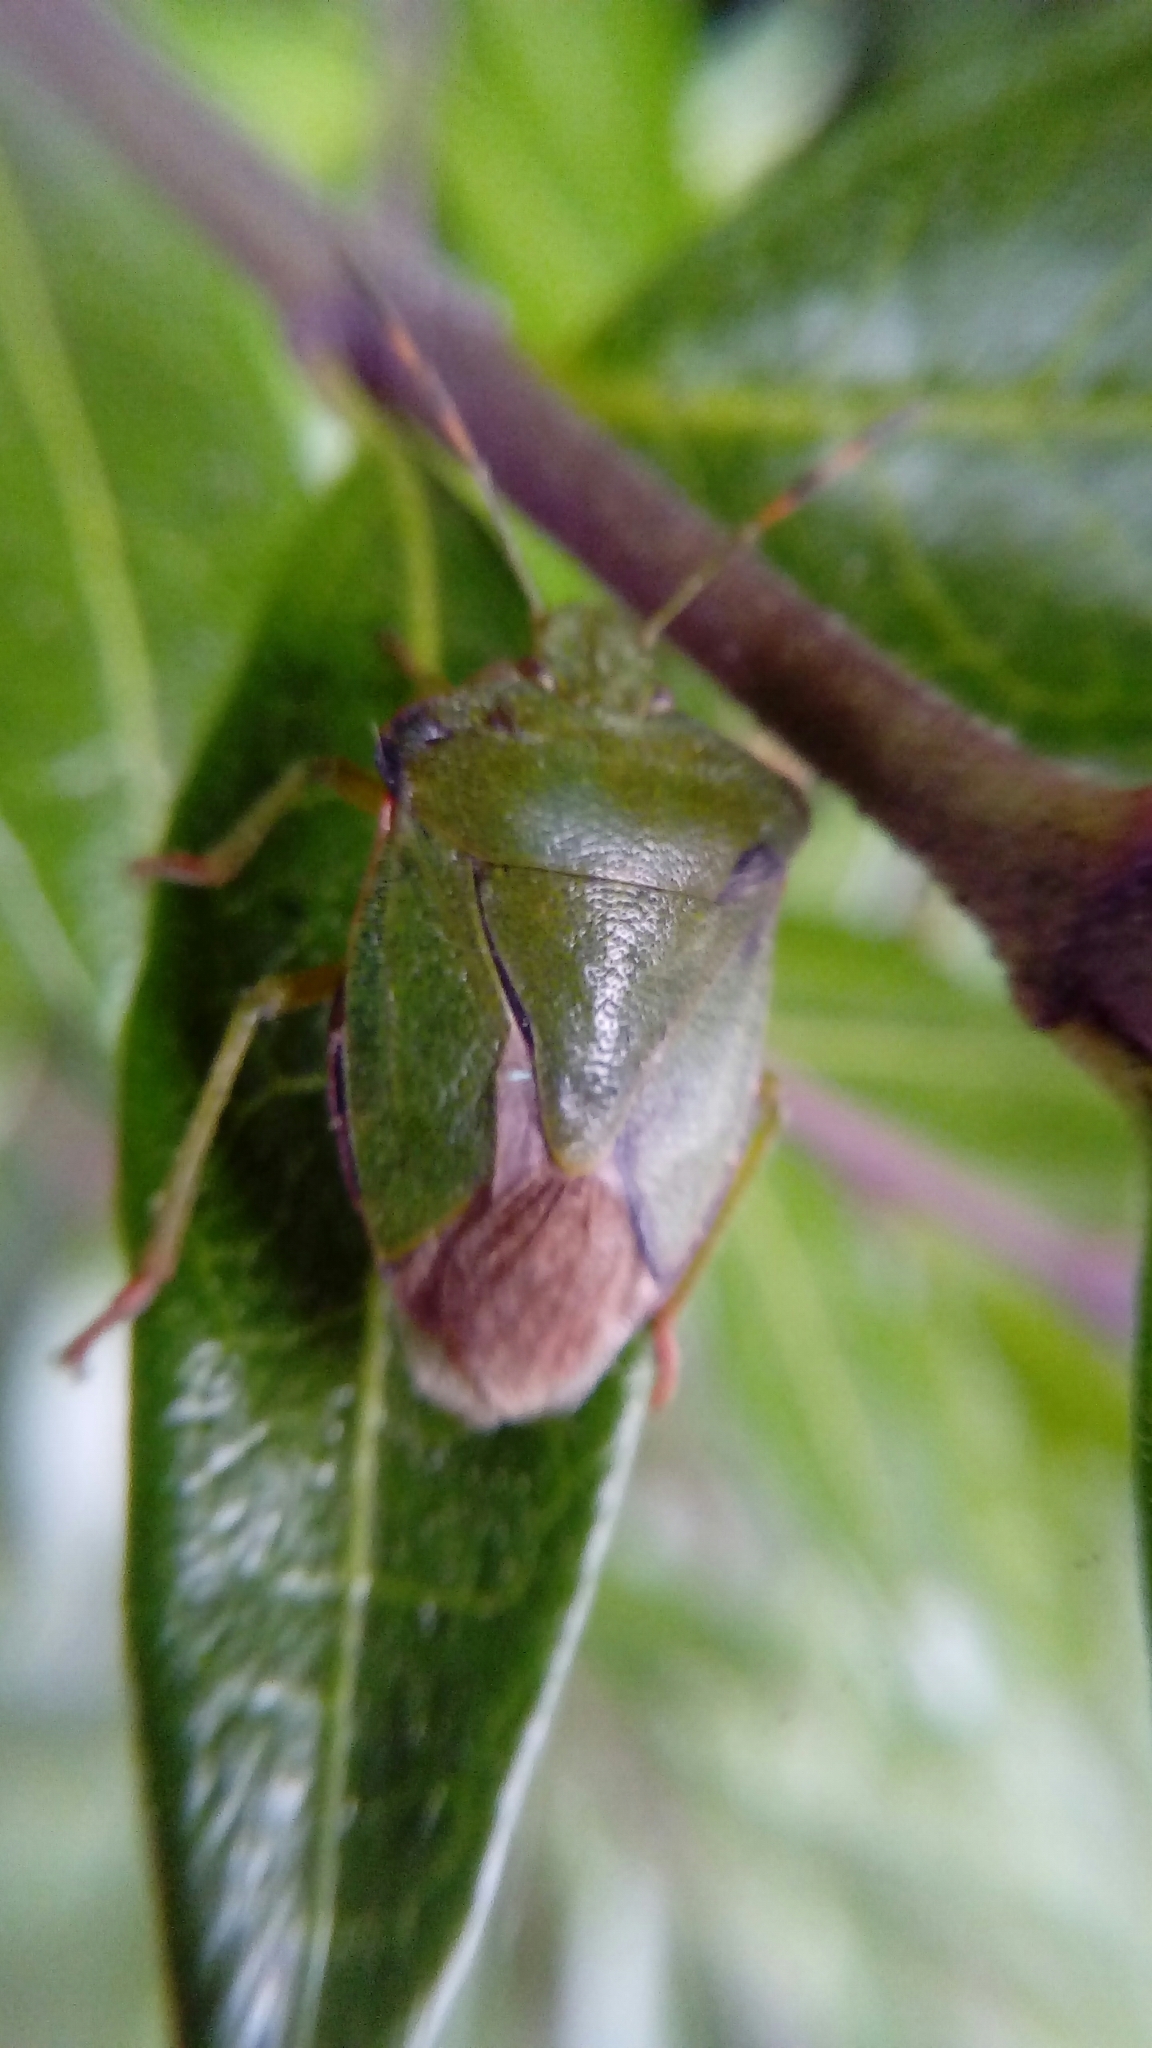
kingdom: Animalia
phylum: Arthropoda
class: Insecta
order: Hemiptera
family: Pentatomidae
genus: Palomena
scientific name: Palomena prasina
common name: Green shieldbug
